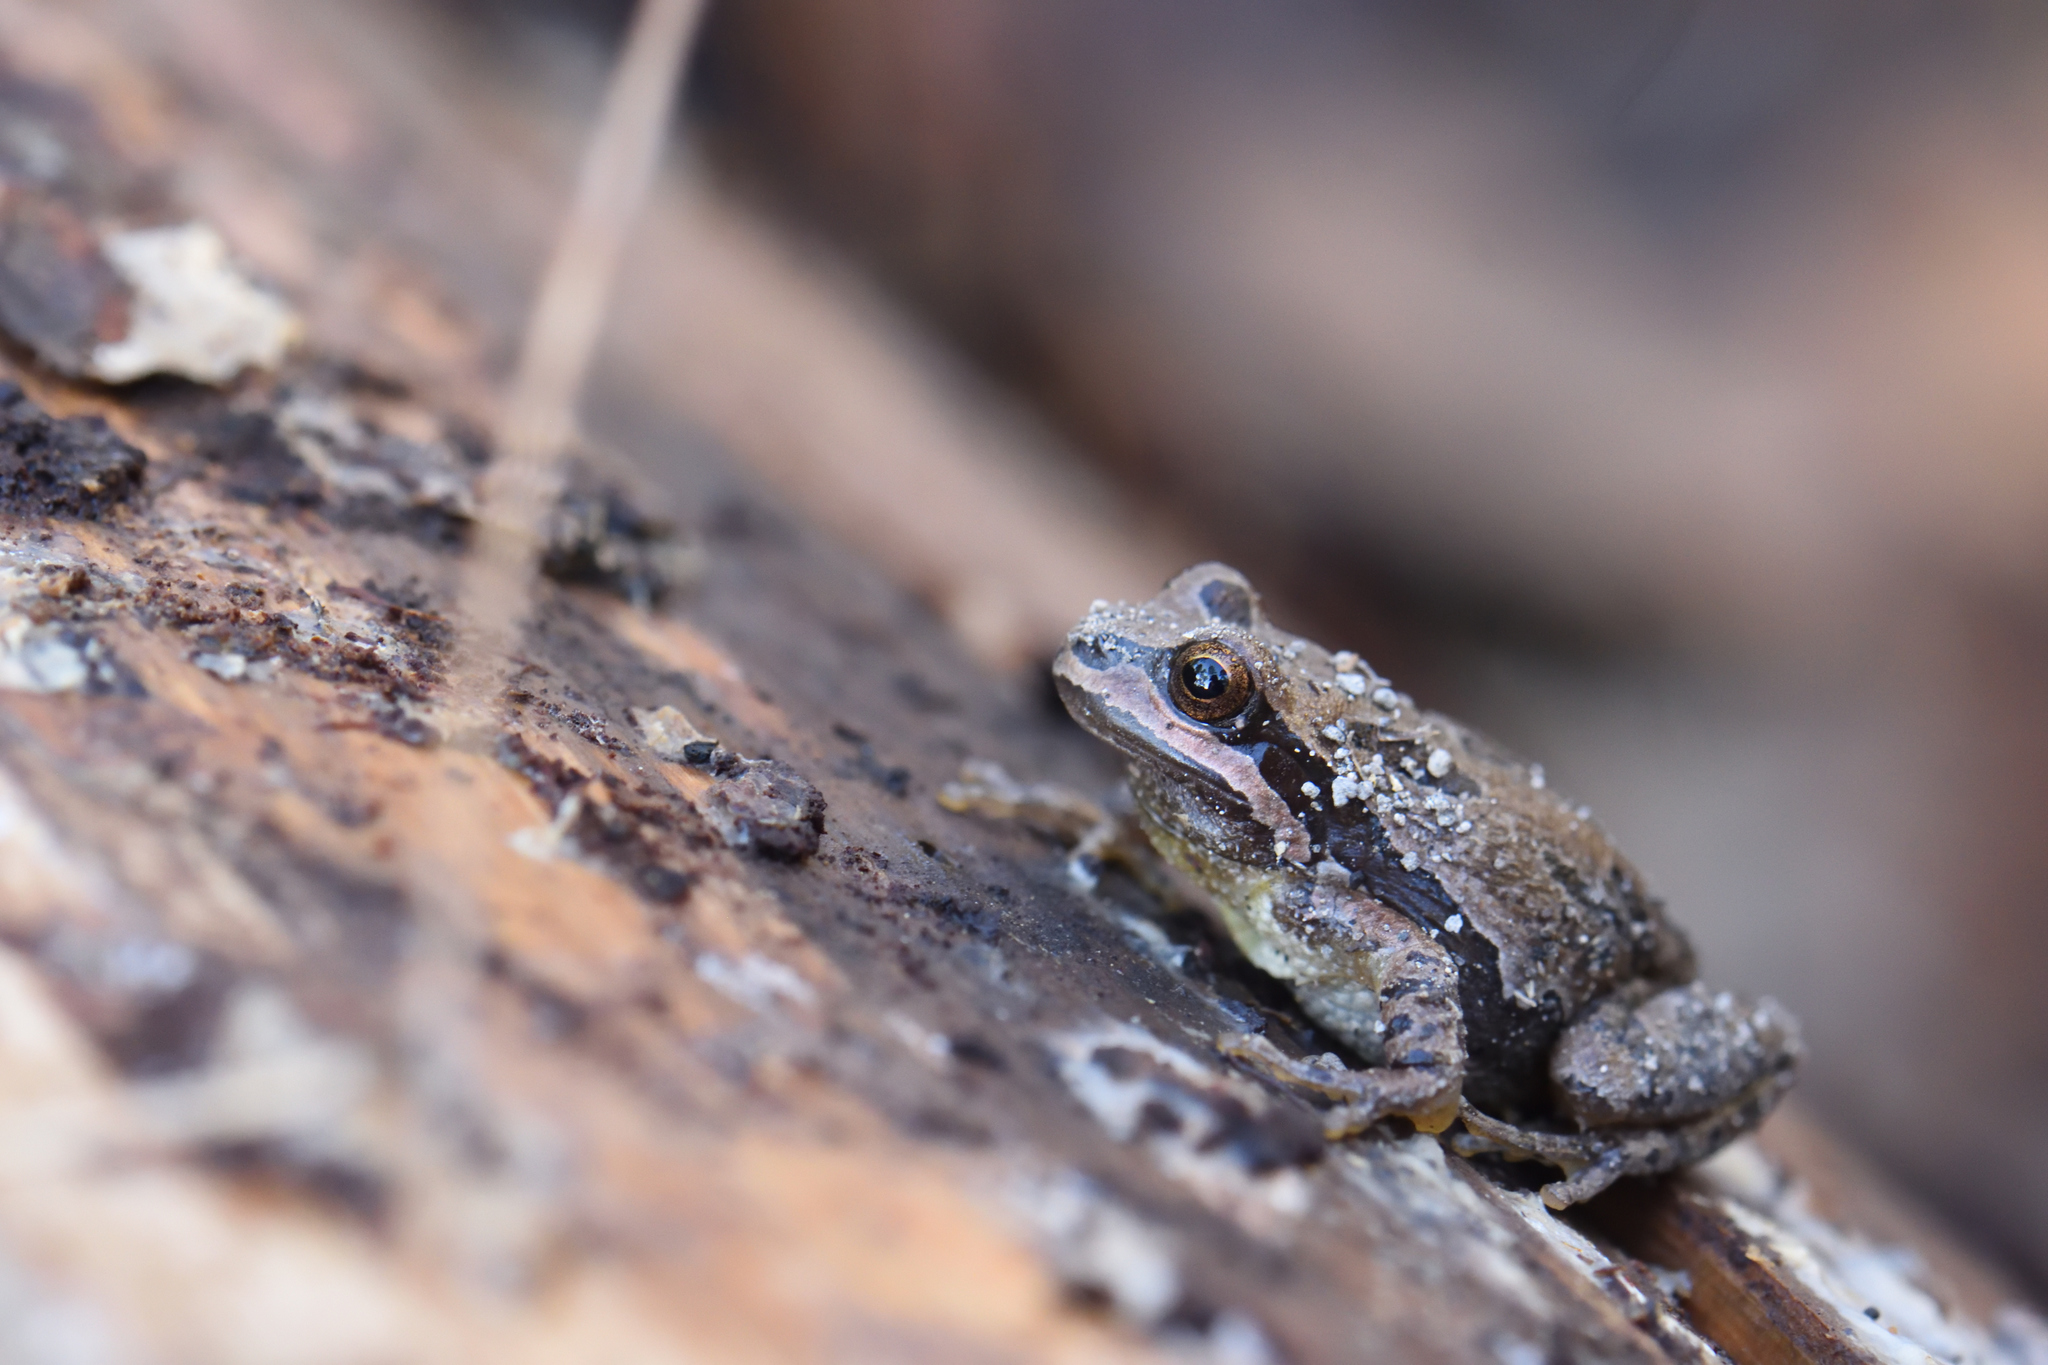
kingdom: Animalia
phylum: Chordata
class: Amphibia
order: Anura
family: Hylidae
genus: Dryophytes
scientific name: Dryophytes eximius
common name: Mountain treefrog
